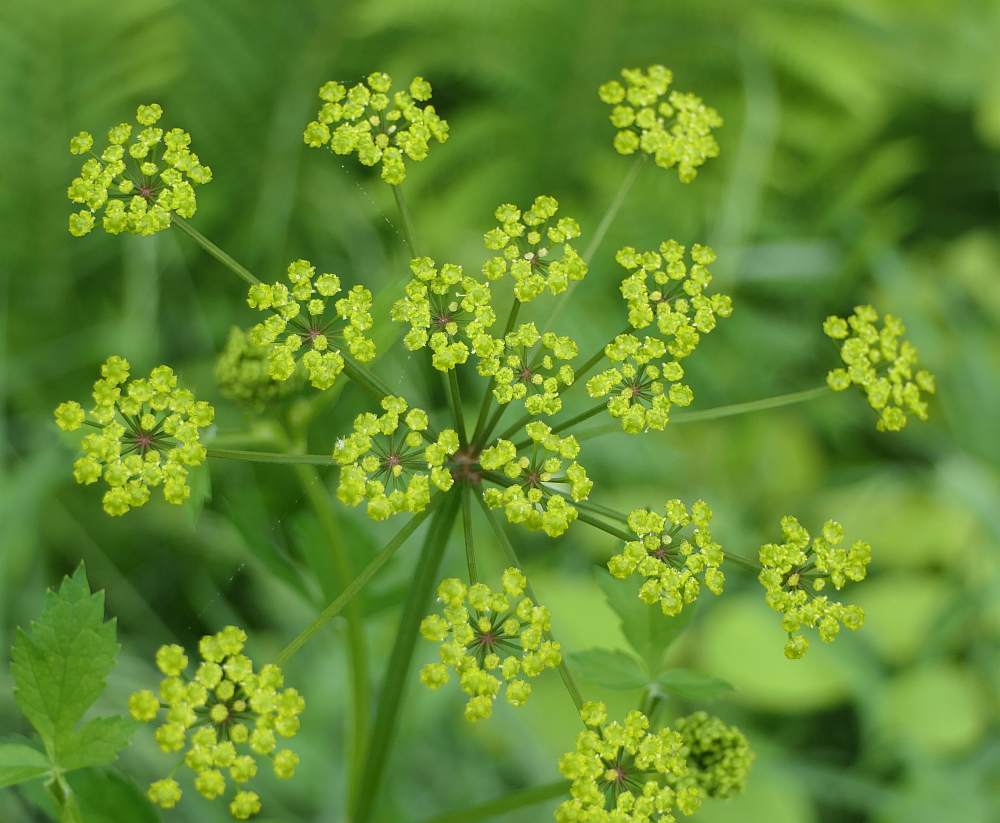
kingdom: Plantae
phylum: Tracheophyta
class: Magnoliopsida
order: Apiales
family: Apiaceae
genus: Pastinaca
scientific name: Pastinaca sativa
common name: Wild parsnip
